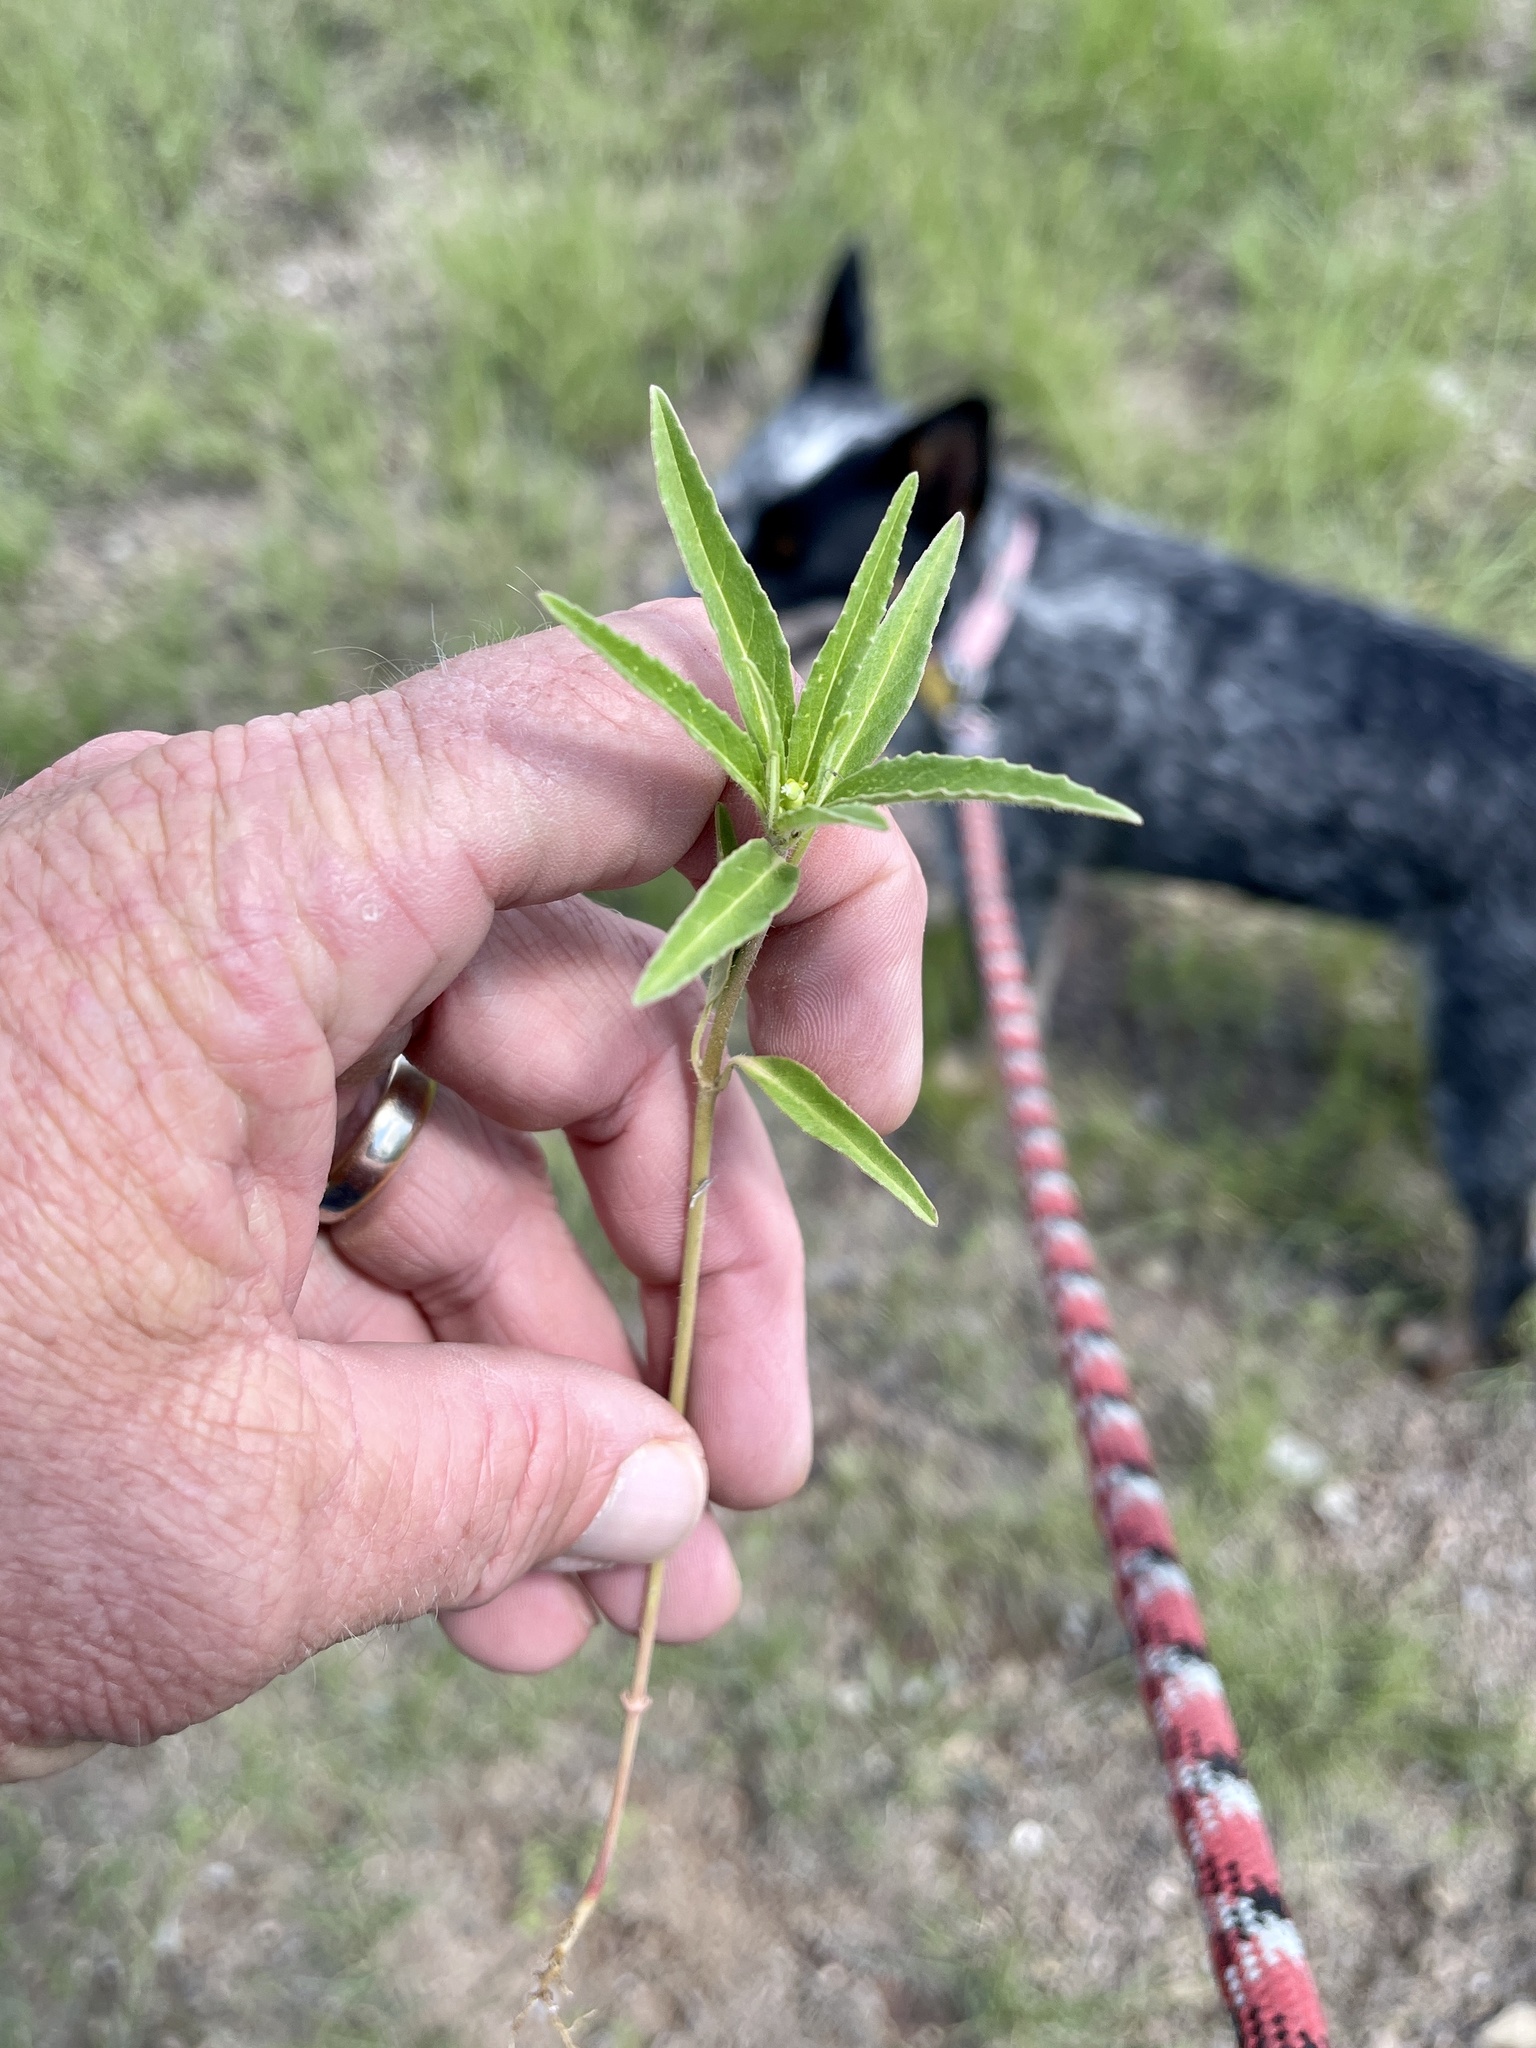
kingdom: Plantae
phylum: Tracheophyta
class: Magnoliopsida
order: Malpighiales
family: Euphorbiaceae
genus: Euphorbia
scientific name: Euphorbia davidii
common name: David's spurge
